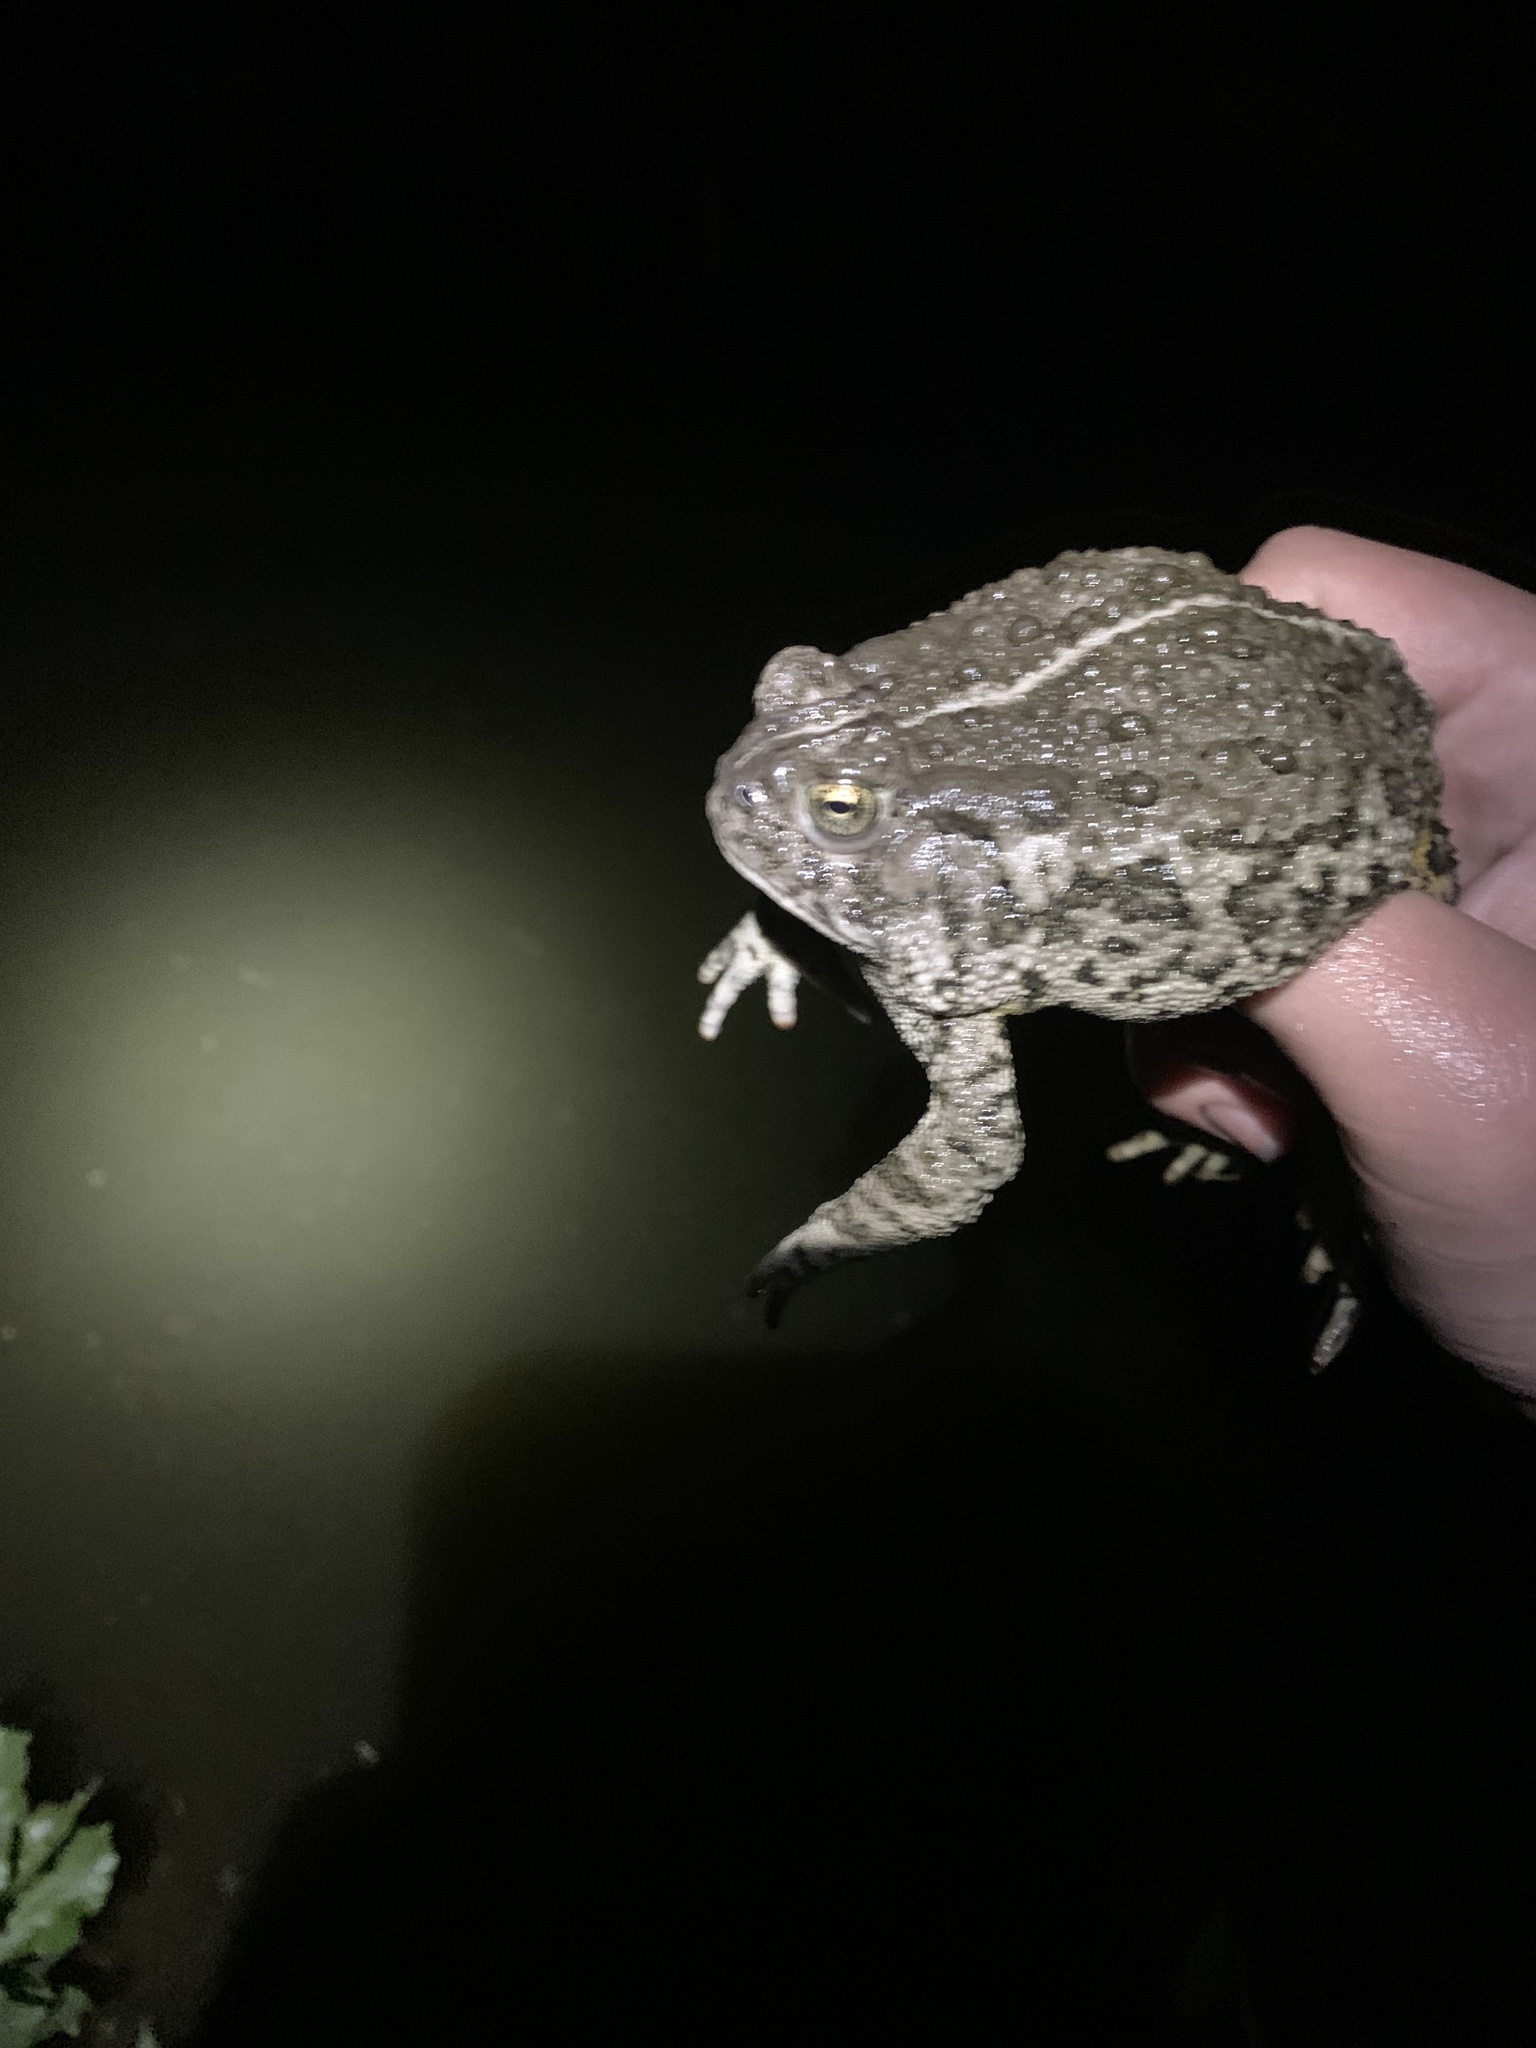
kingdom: Animalia
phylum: Chordata
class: Amphibia
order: Anura
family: Bufonidae
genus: Anaxyrus
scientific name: Anaxyrus woodhousii
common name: Woodhouse's toad
